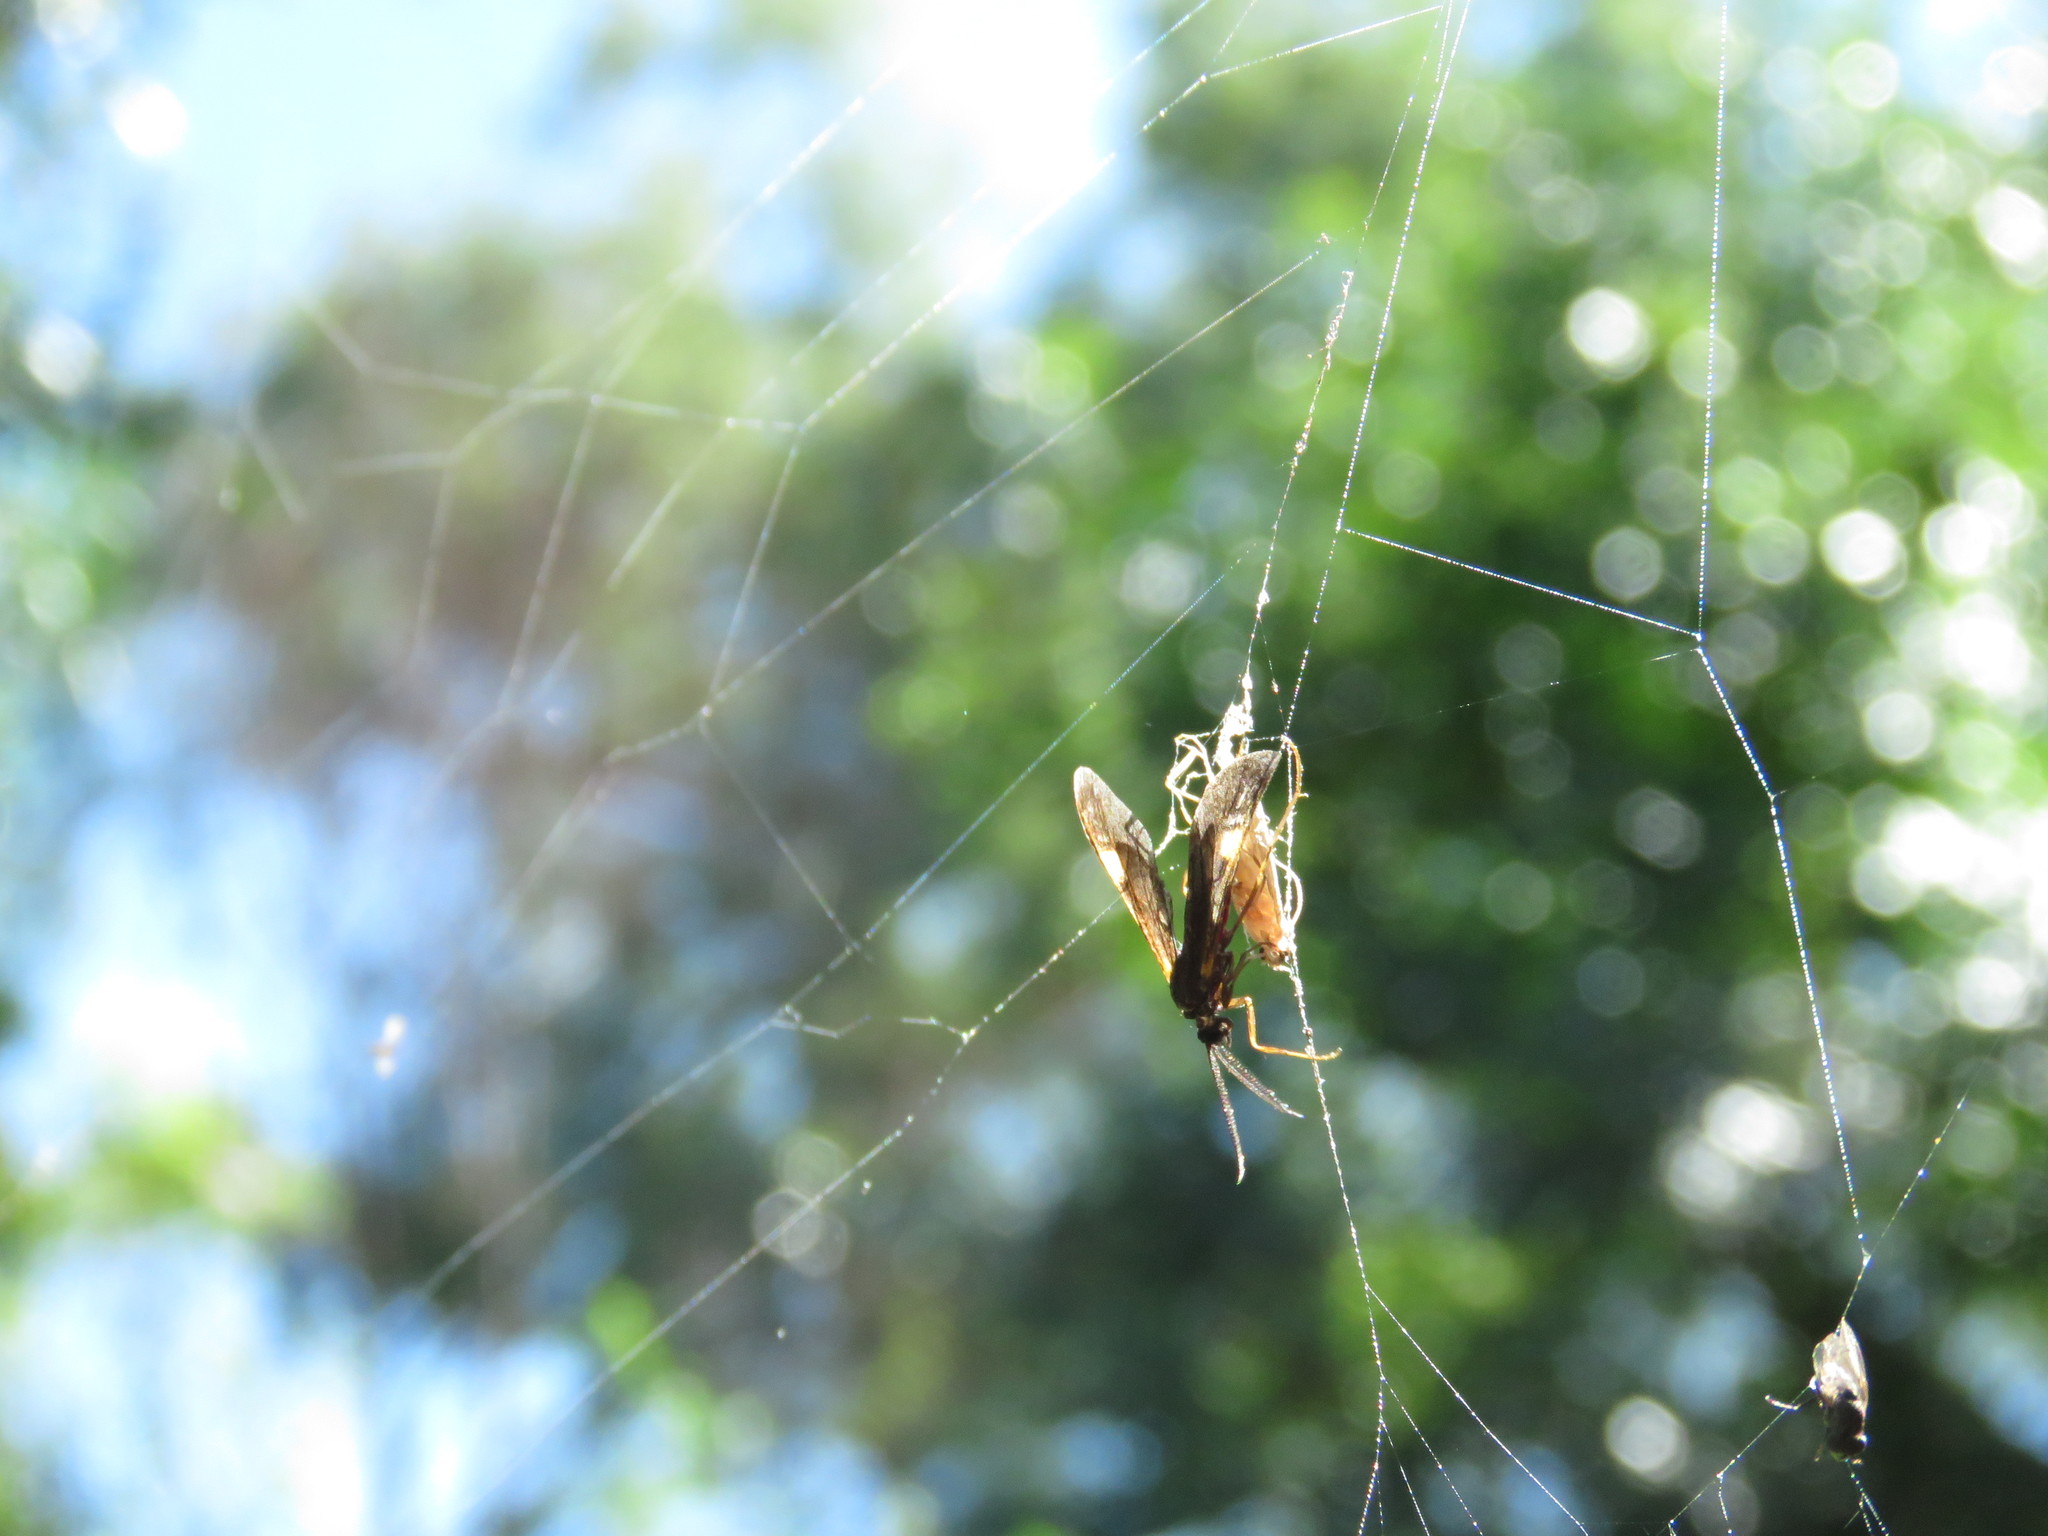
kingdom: Animalia
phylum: Arthropoda
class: Insecta
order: Lepidoptera
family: Erebidae
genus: Rhynchopyga
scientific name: Rhynchopyga meisteri
